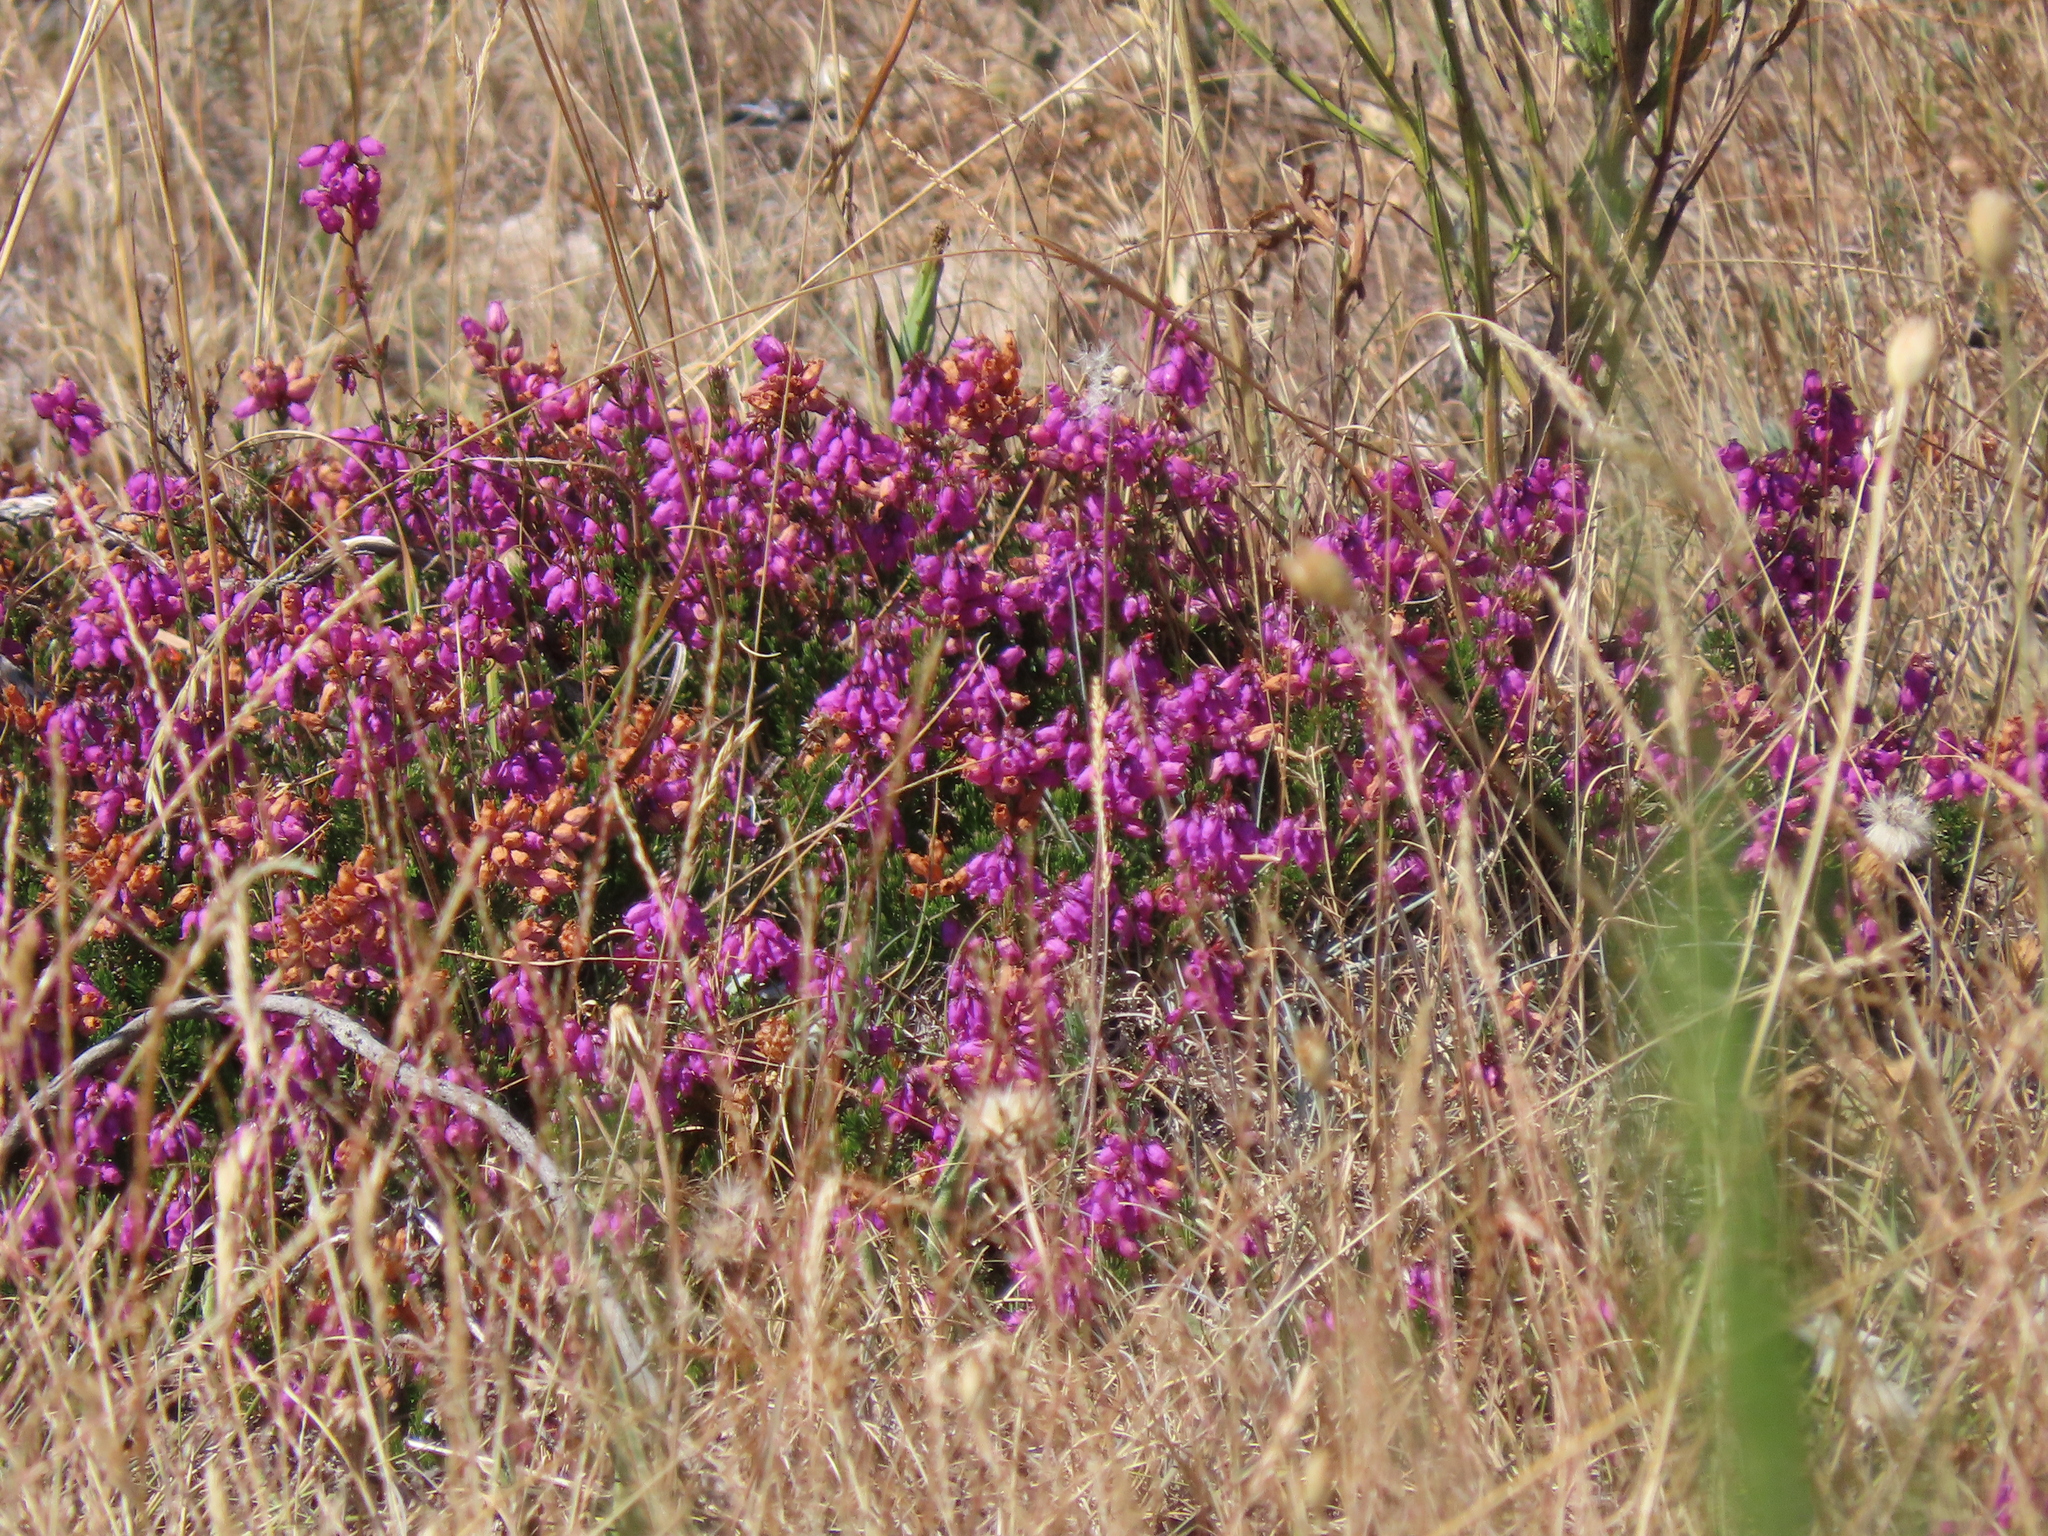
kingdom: Plantae
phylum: Tracheophyta
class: Magnoliopsida
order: Ericales
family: Ericaceae
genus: Erica
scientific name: Erica cinerea
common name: Bell heather
